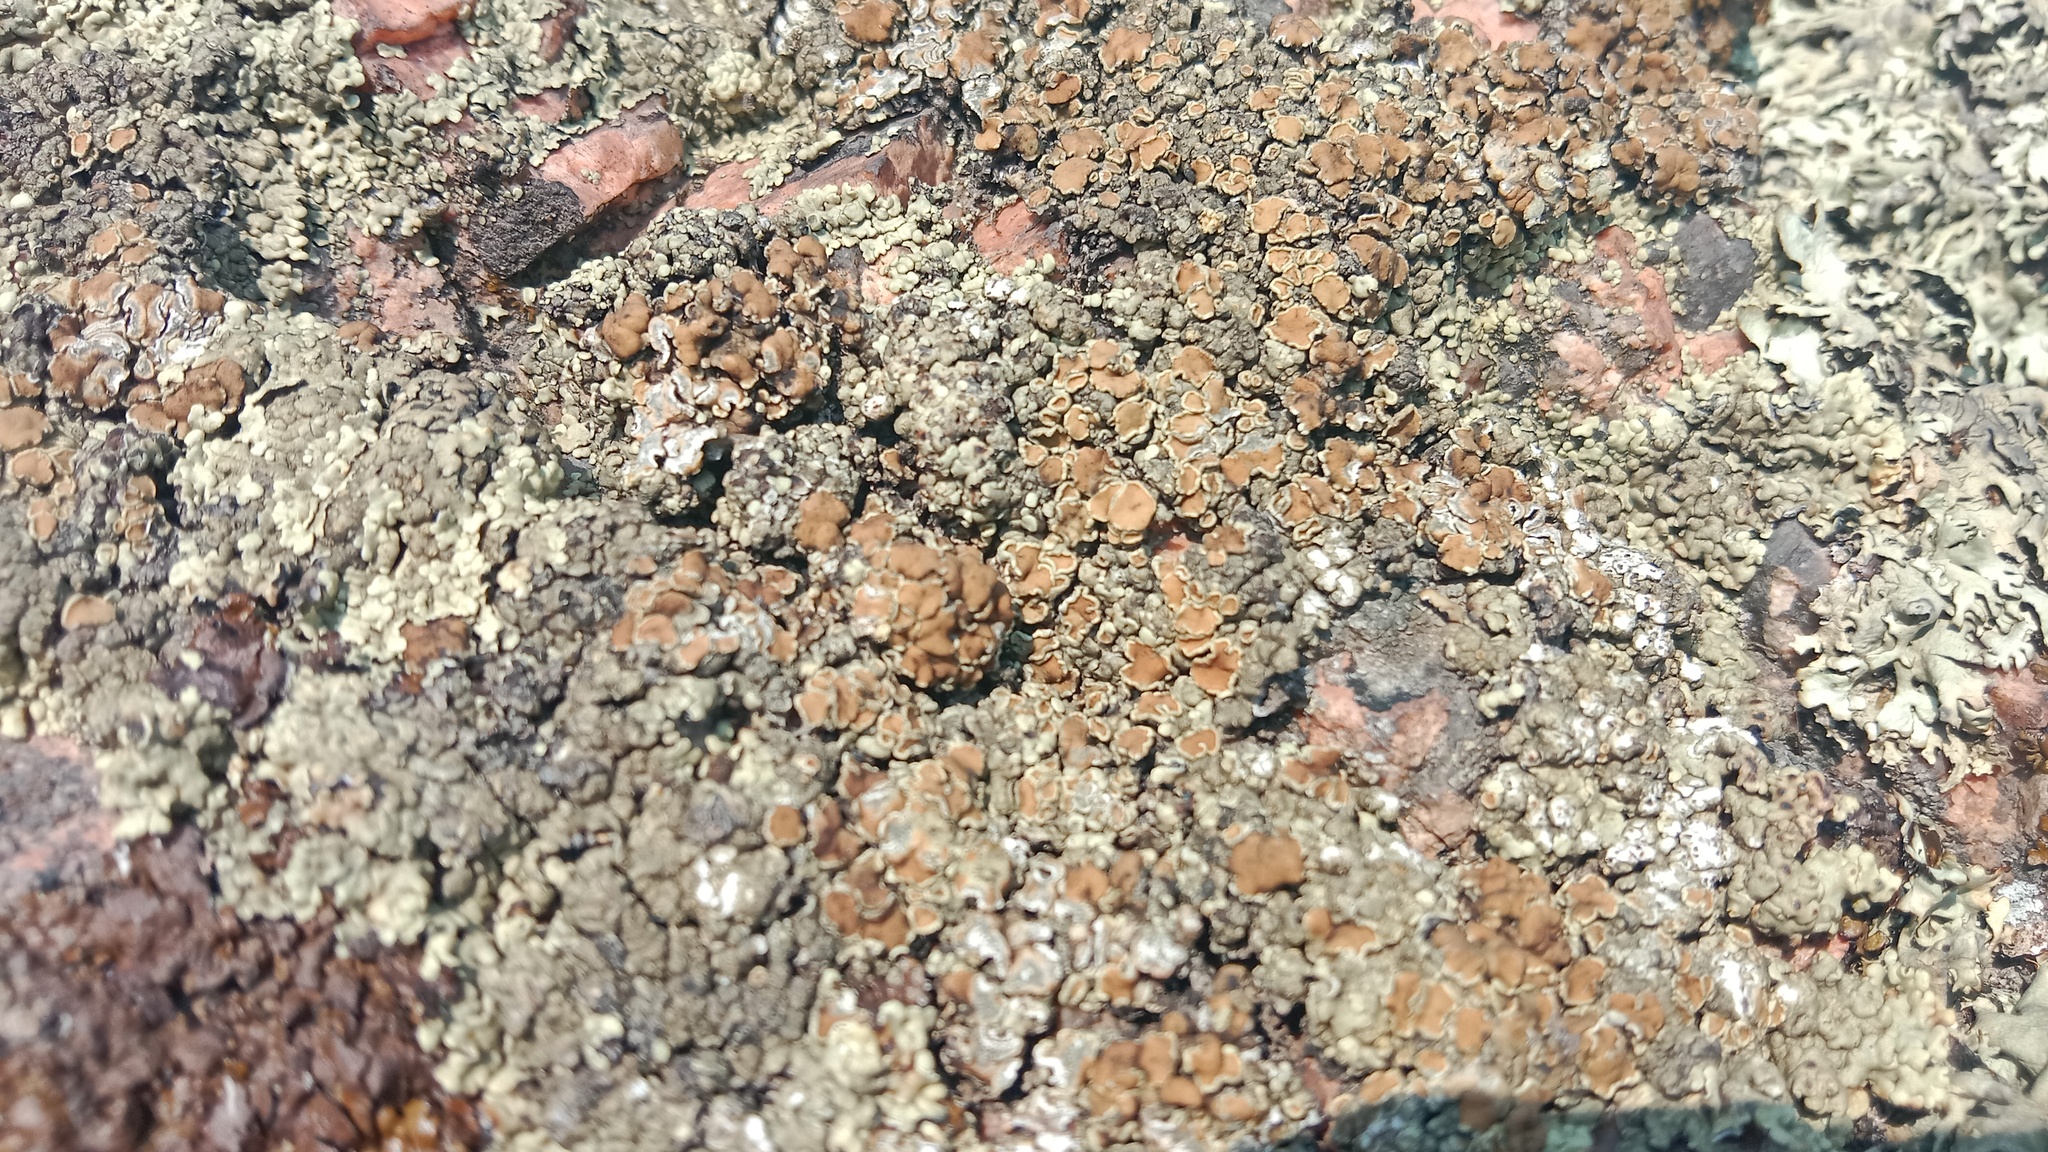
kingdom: Fungi
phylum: Ascomycota
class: Lecanoromycetes
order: Lecanorales
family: Lecanoraceae
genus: Protoparmeliopsis
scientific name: Protoparmeliopsis muralis
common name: Stonewall rim lichen
